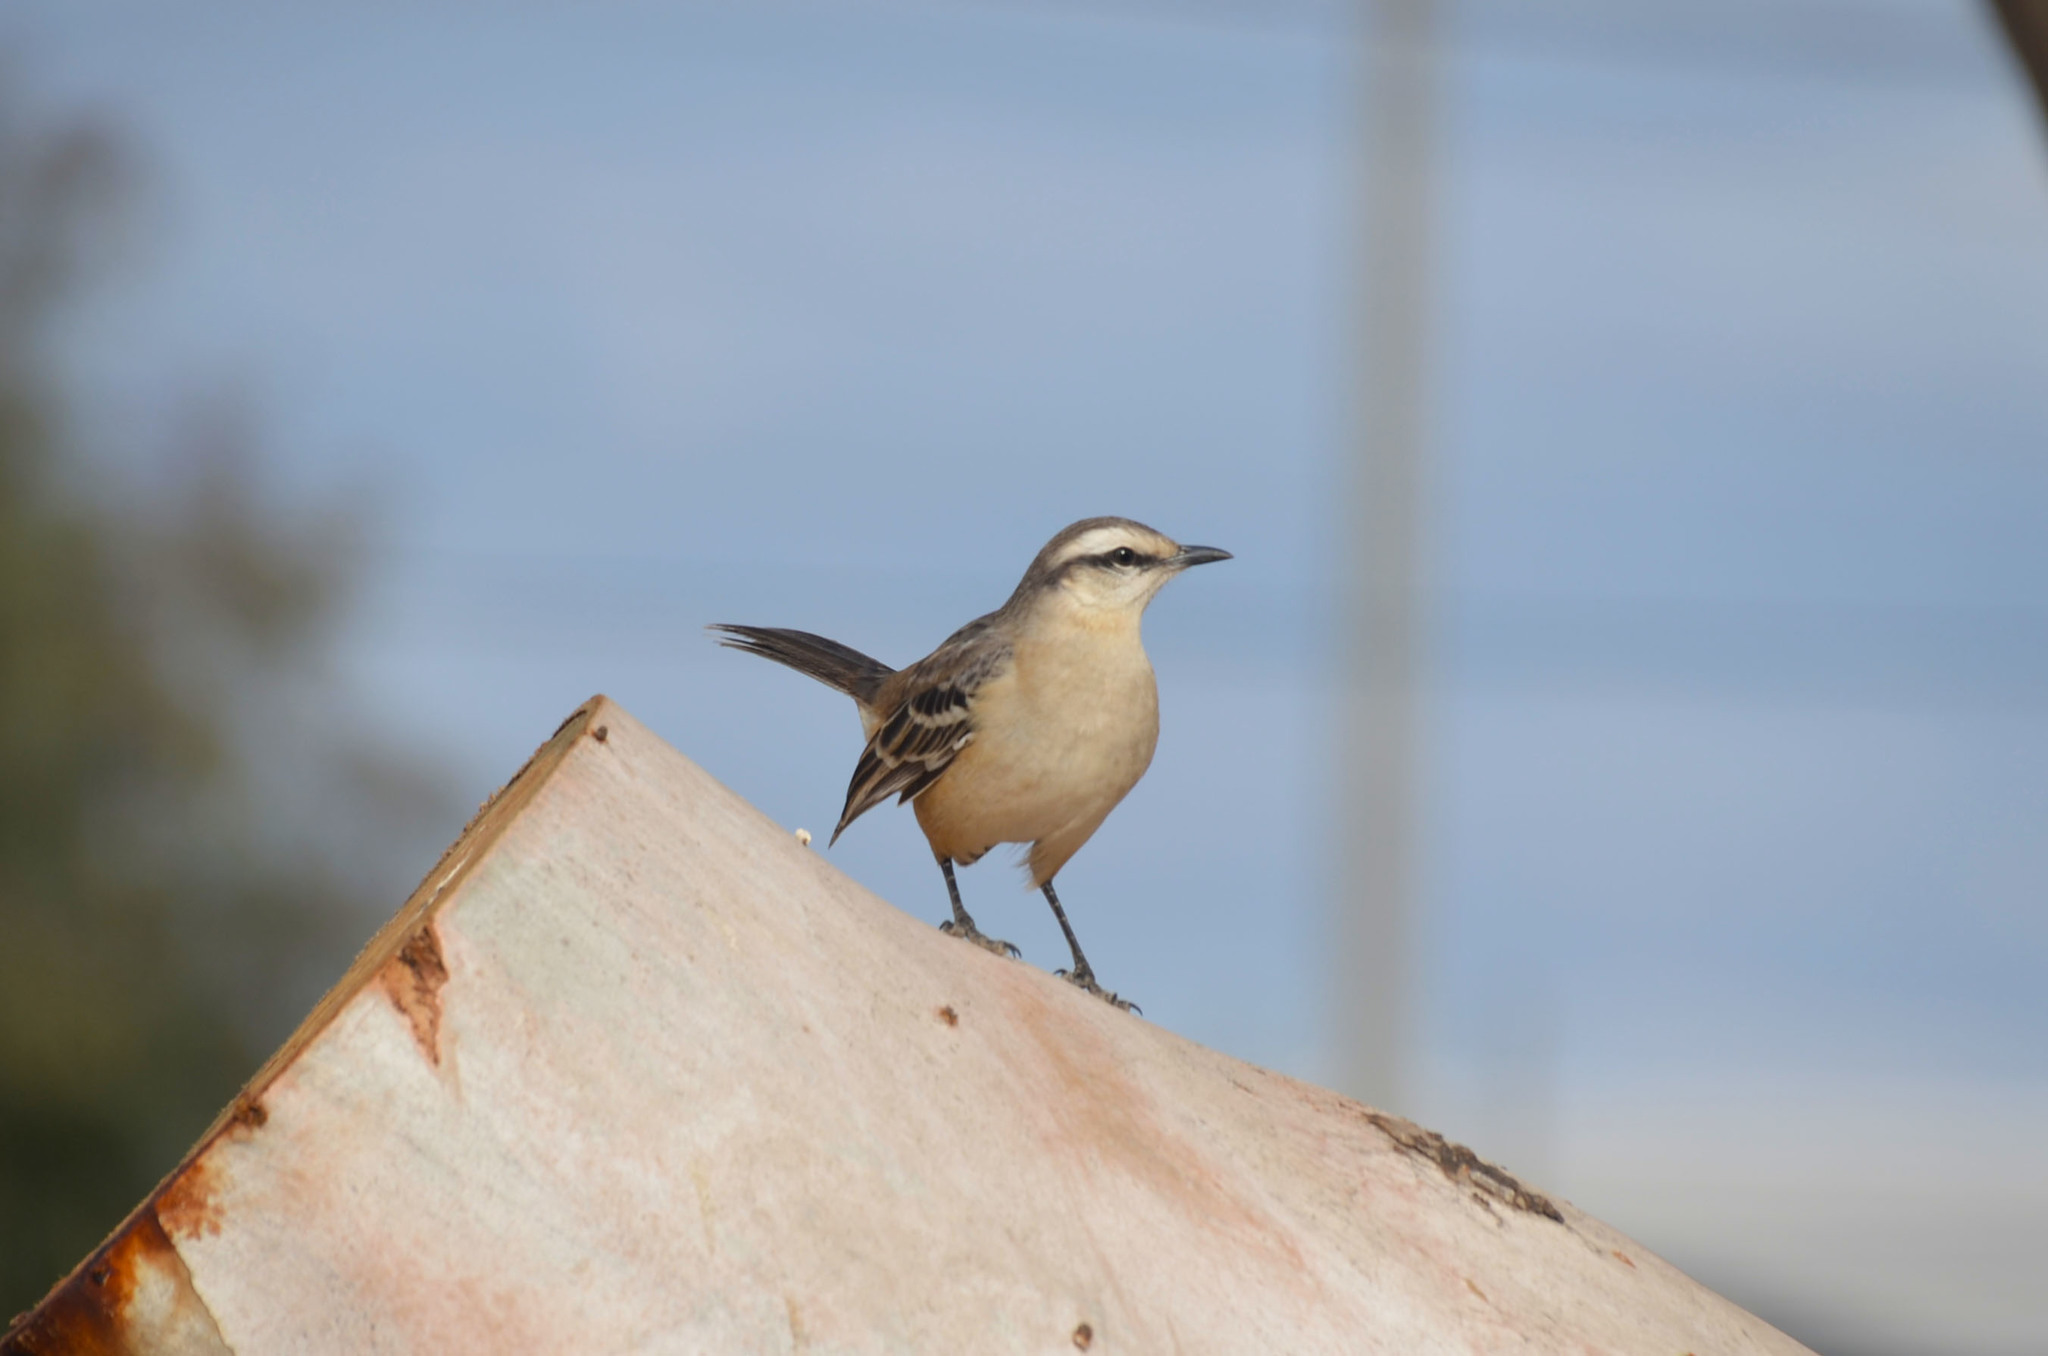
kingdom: Animalia
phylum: Chordata
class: Aves
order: Passeriformes
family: Mimidae
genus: Mimus
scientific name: Mimus saturninus
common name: Chalk-browed mockingbird
